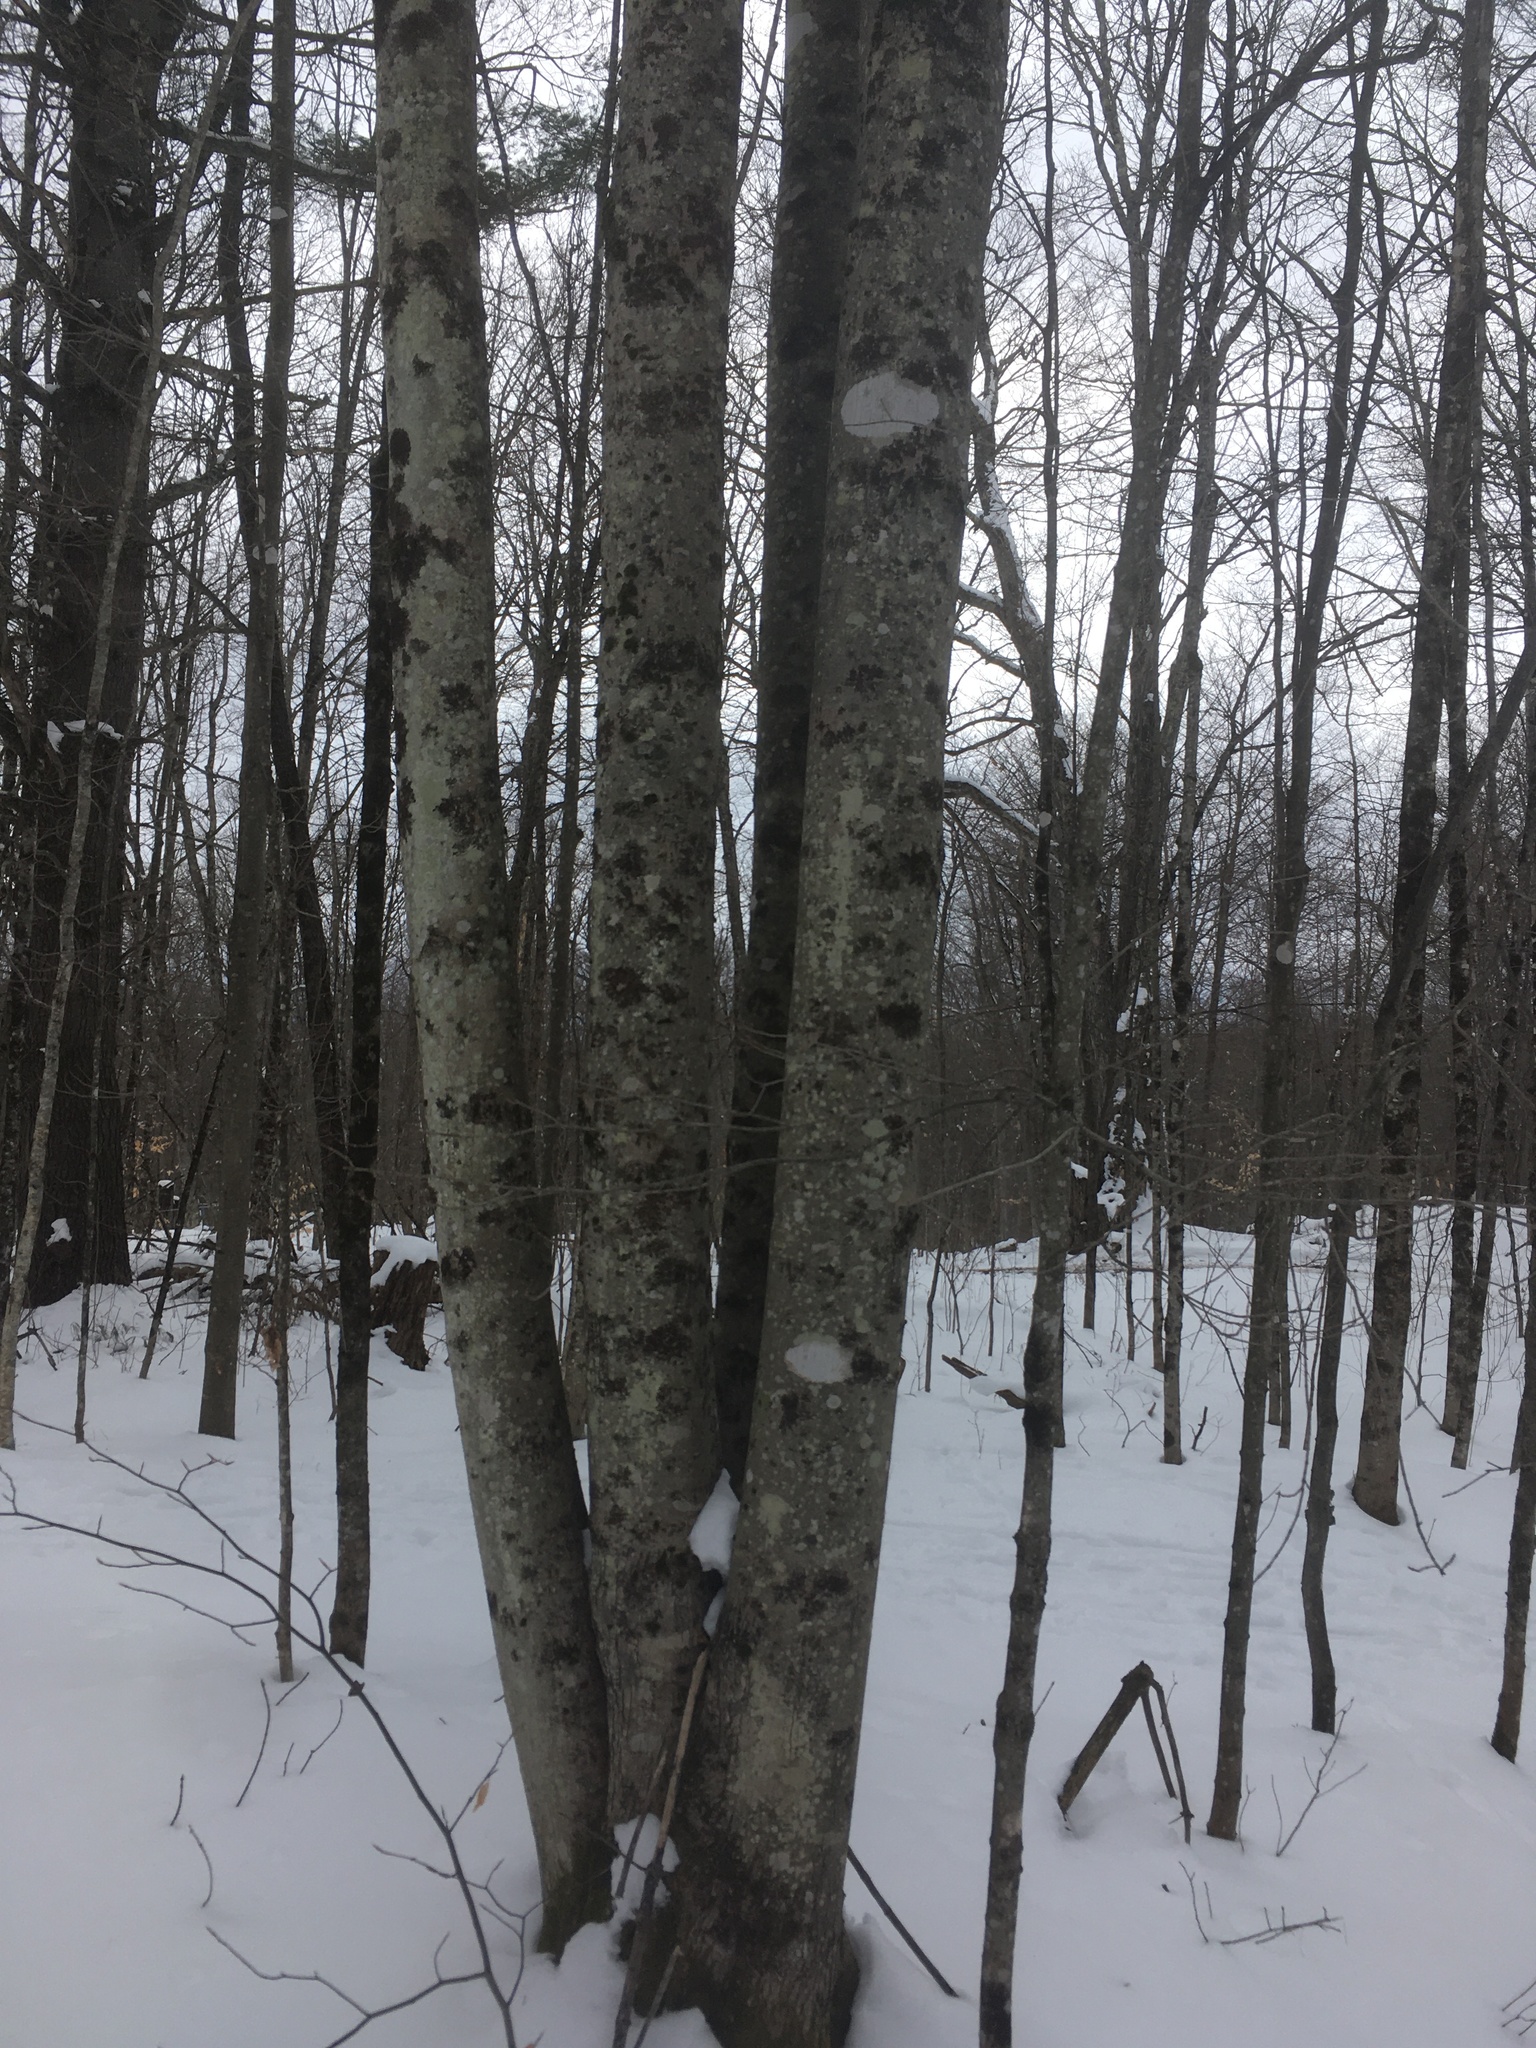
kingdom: Plantae
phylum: Tracheophyta
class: Magnoliopsida
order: Sapindales
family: Sapindaceae
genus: Acer
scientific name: Acer rubrum
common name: Red maple
